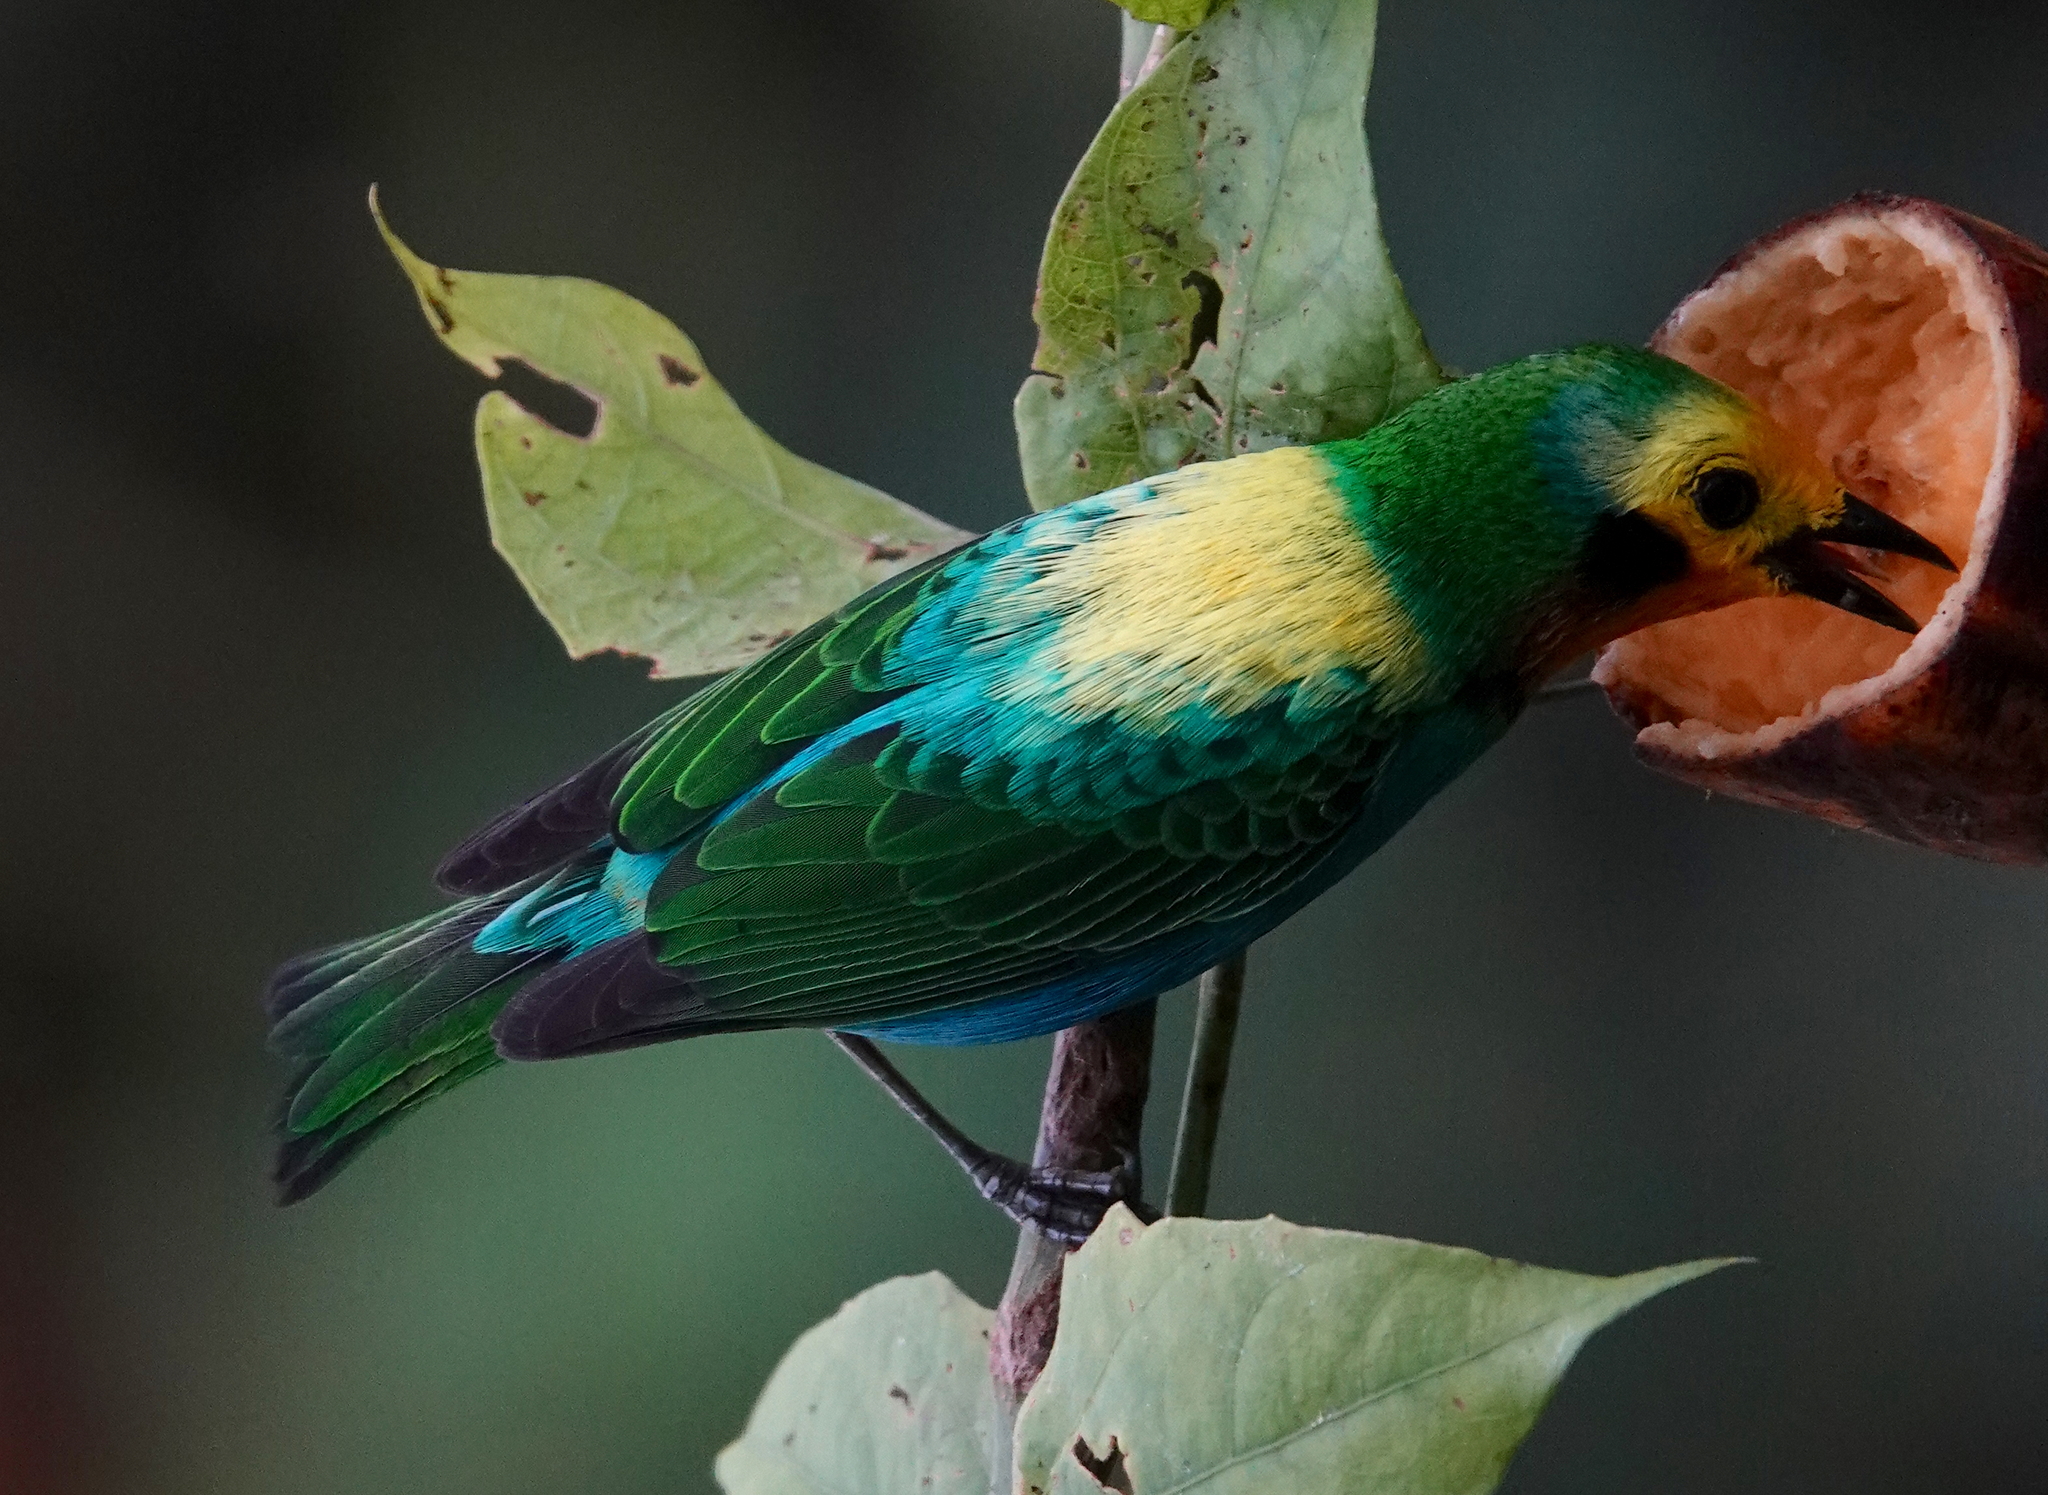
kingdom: Animalia
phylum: Chordata
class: Aves
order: Passeriformes
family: Thraupidae
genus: Chlorochrysa
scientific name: Chlorochrysa nitidissima
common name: Multicolored tanager
